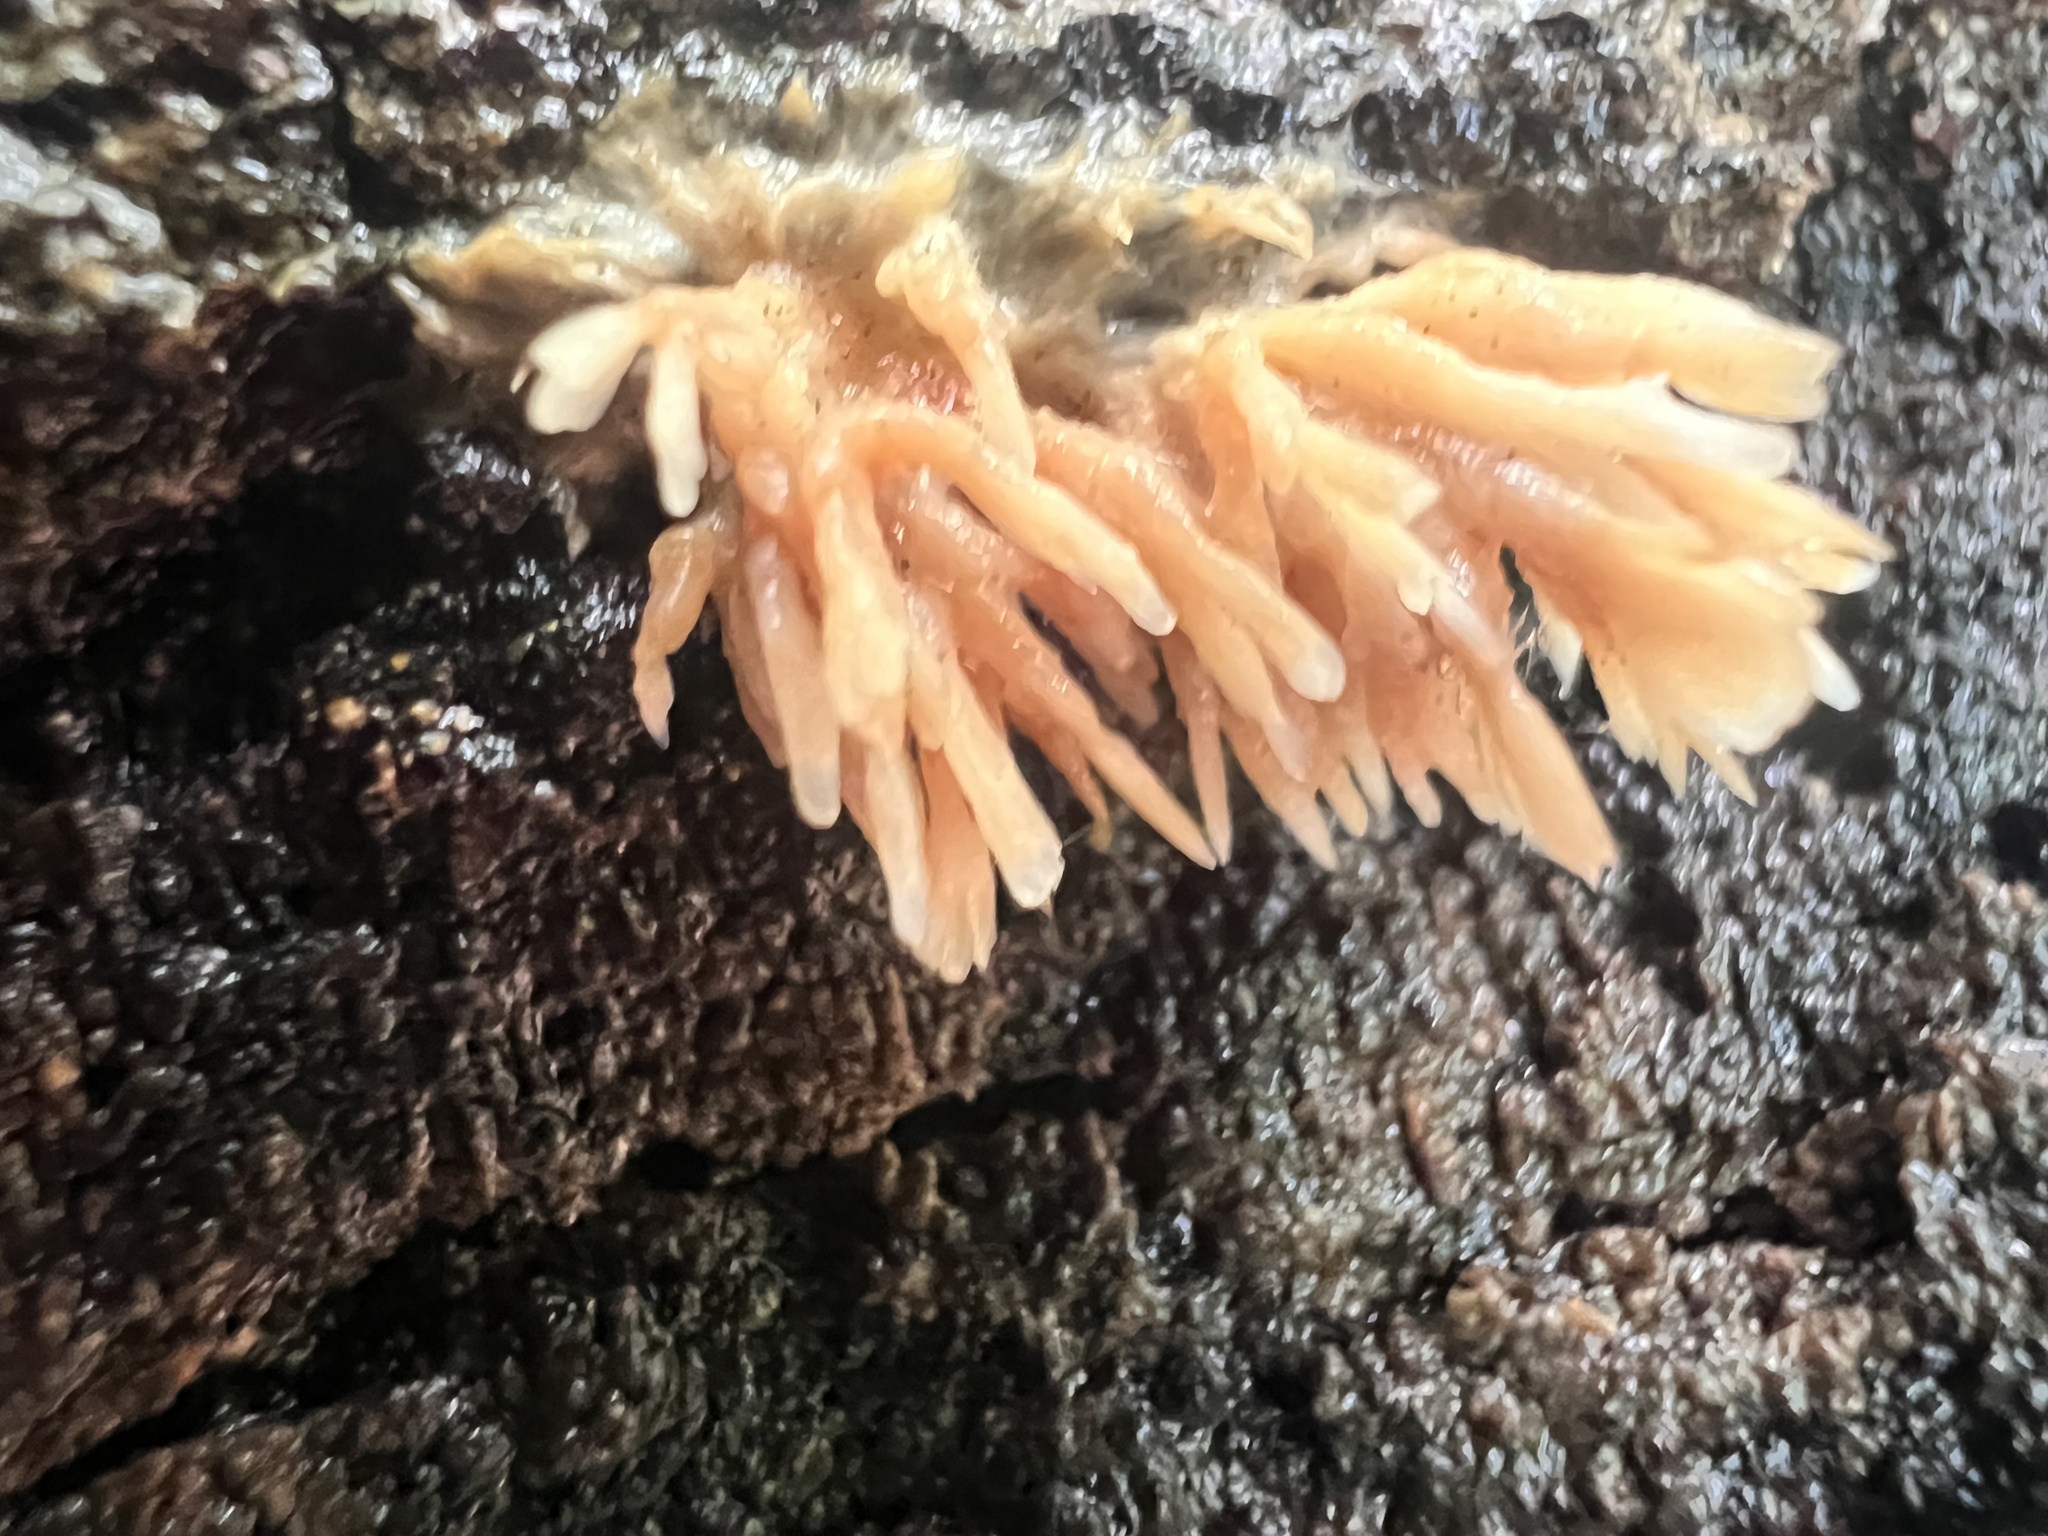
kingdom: Fungi
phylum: Basidiomycota
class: Agaricomycetes
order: Agaricales
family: Radulomycetaceae
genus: Radulomyces
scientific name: Radulomyces copelandii
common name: Asian beauty
